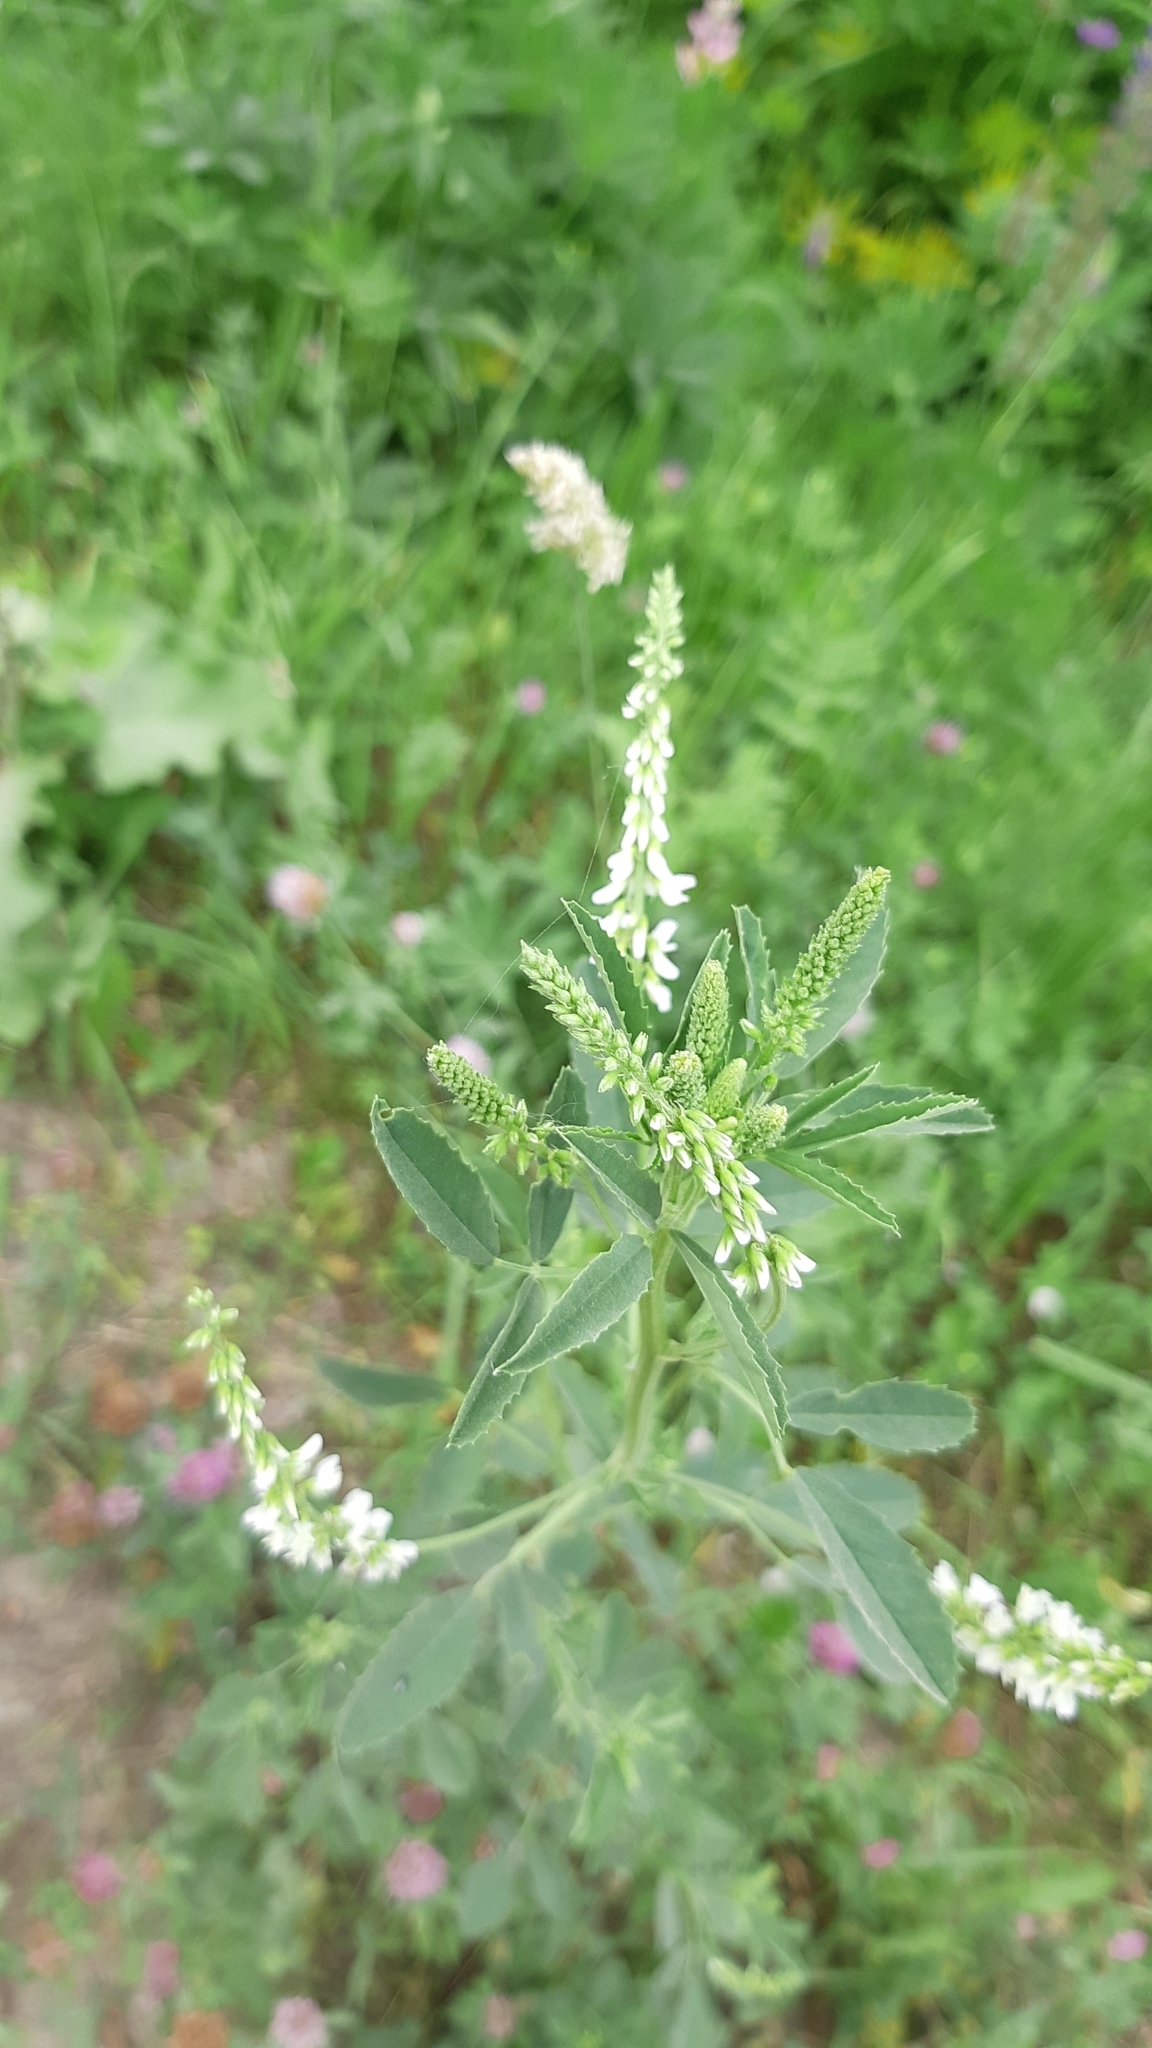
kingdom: Plantae
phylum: Tracheophyta
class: Magnoliopsida
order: Fabales
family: Fabaceae
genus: Melilotus
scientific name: Melilotus albus
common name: White melilot
